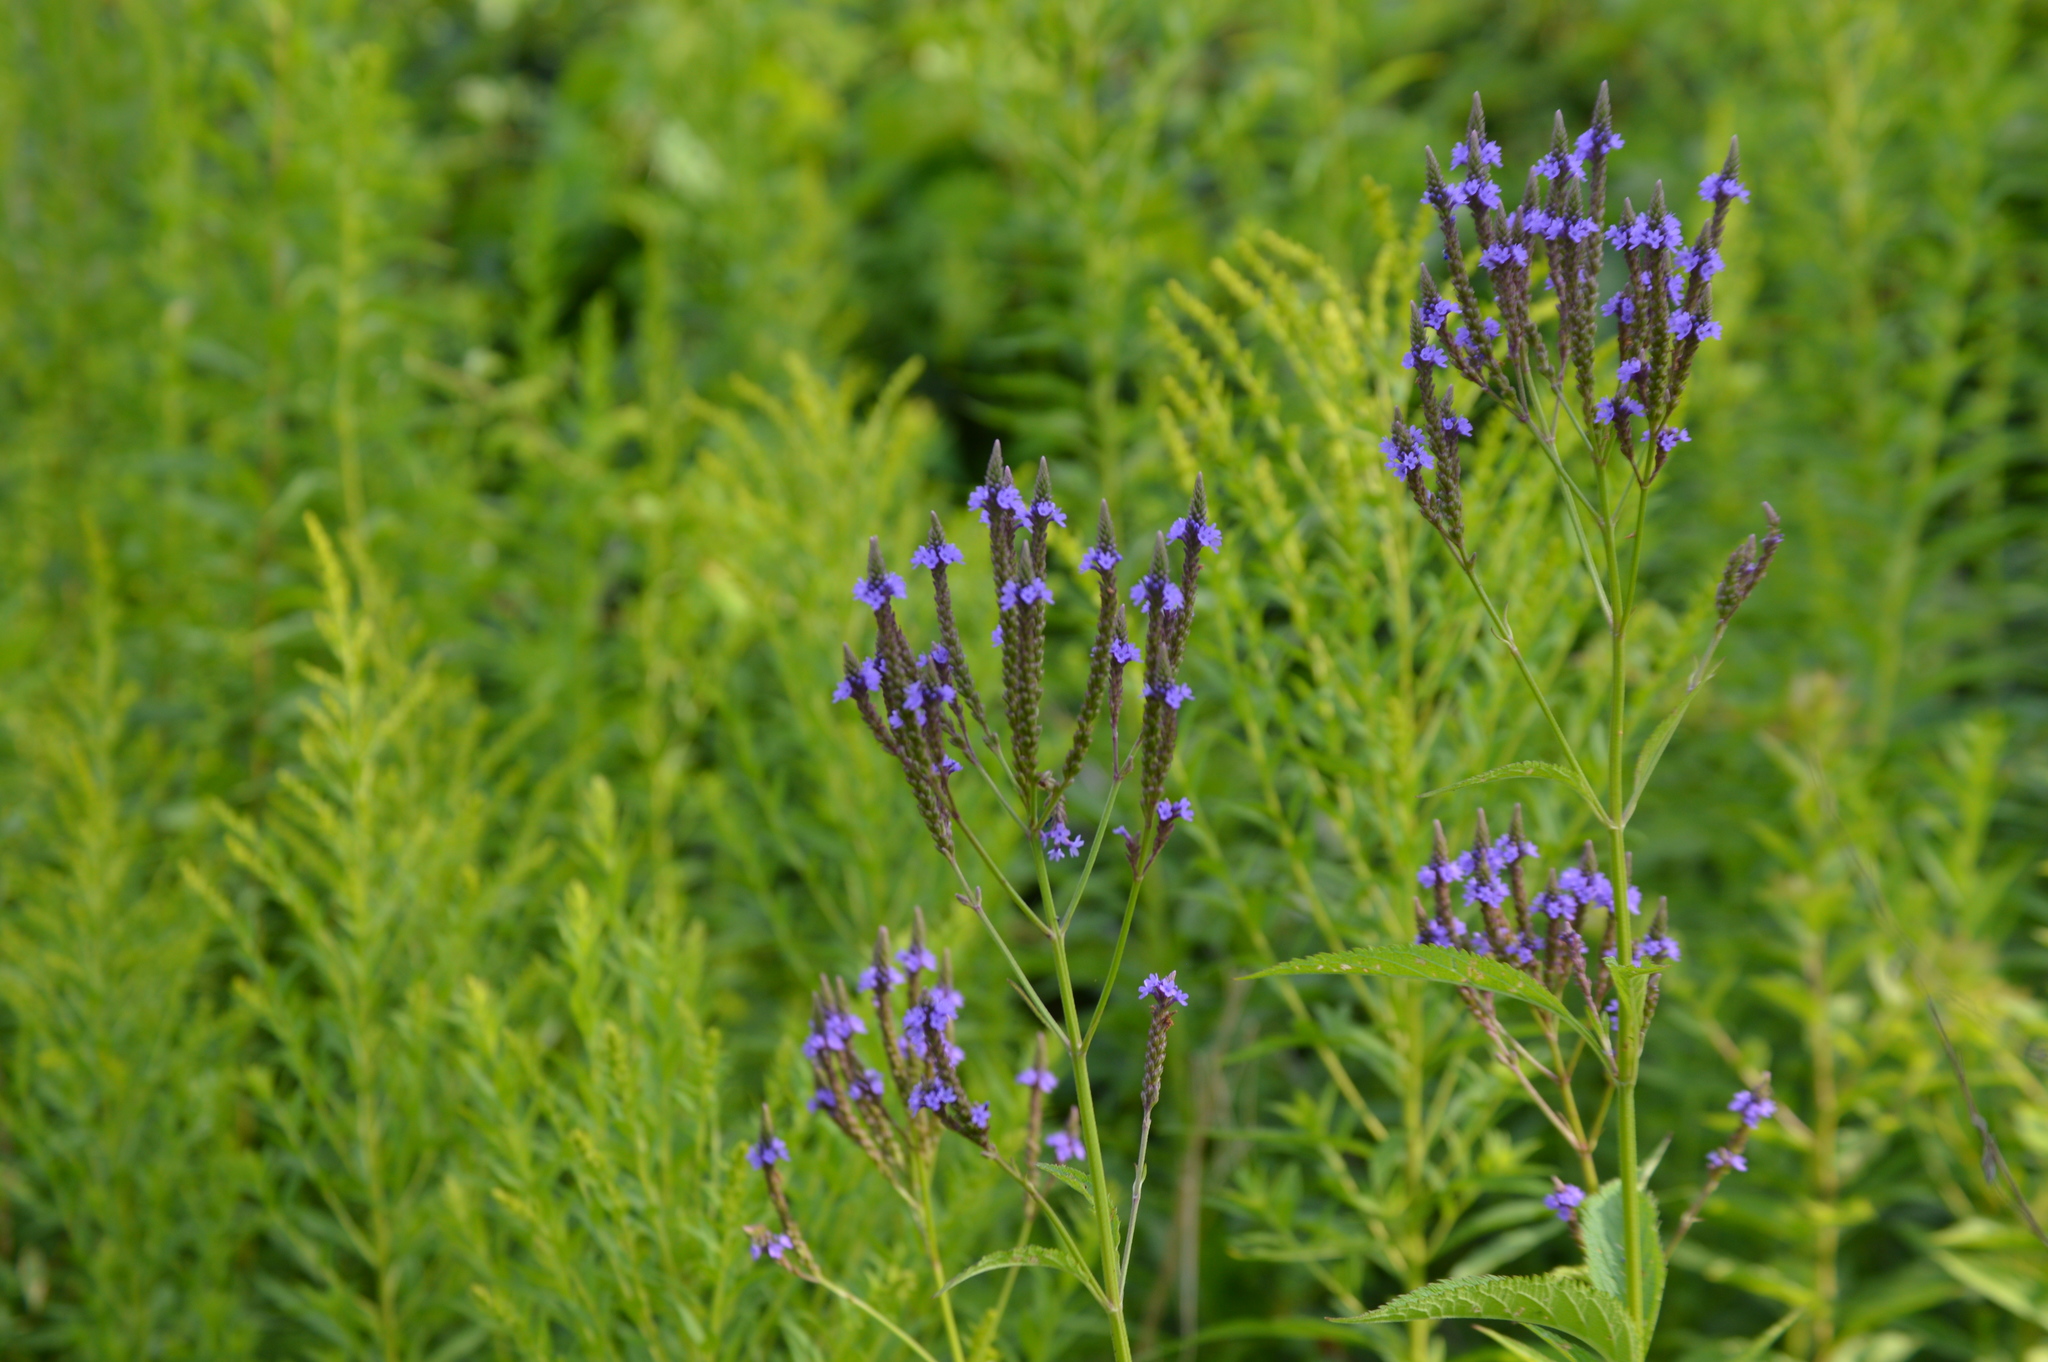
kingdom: Plantae
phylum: Tracheophyta
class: Magnoliopsida
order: Lamiales
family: Verbenaceae
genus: Verbena
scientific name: Verbena hastata
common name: American blue vervain
